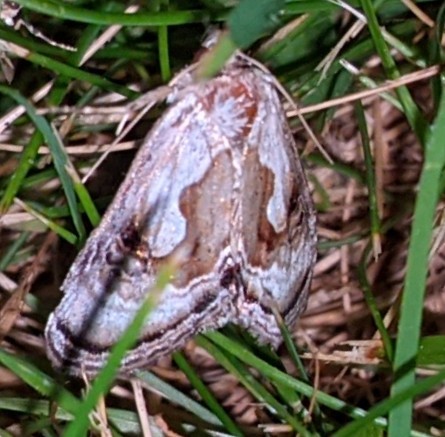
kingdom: Animalia
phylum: Arthropoda
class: Insecta
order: Lepidoptera
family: Noctuidae
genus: Chrysanympha
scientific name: Chrysanympha formosa
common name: Formosa looper moth
